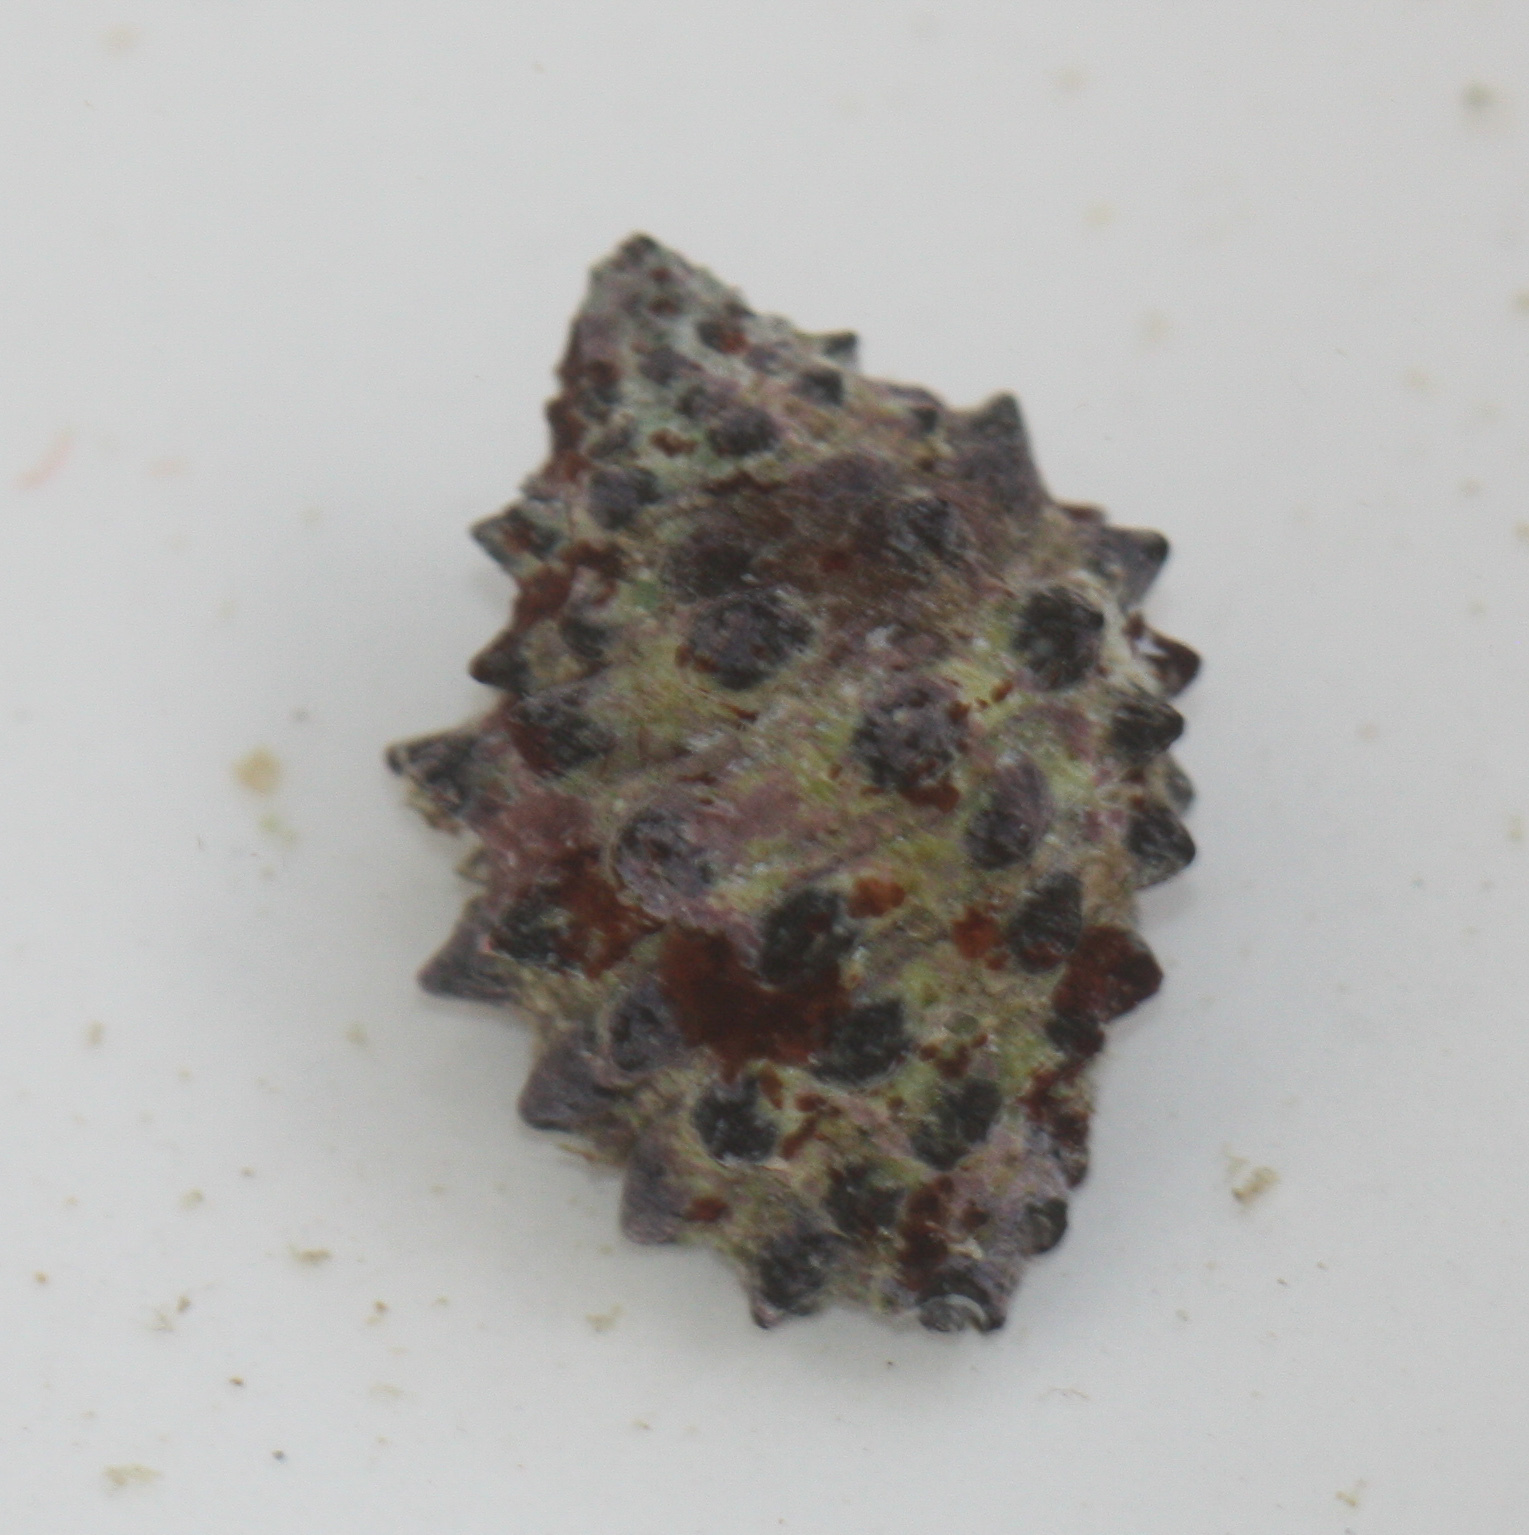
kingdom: Animalia
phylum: Mollusca
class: Gastropoda
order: Neogastropoda
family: Muricidae
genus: Morula
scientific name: Morula uva
